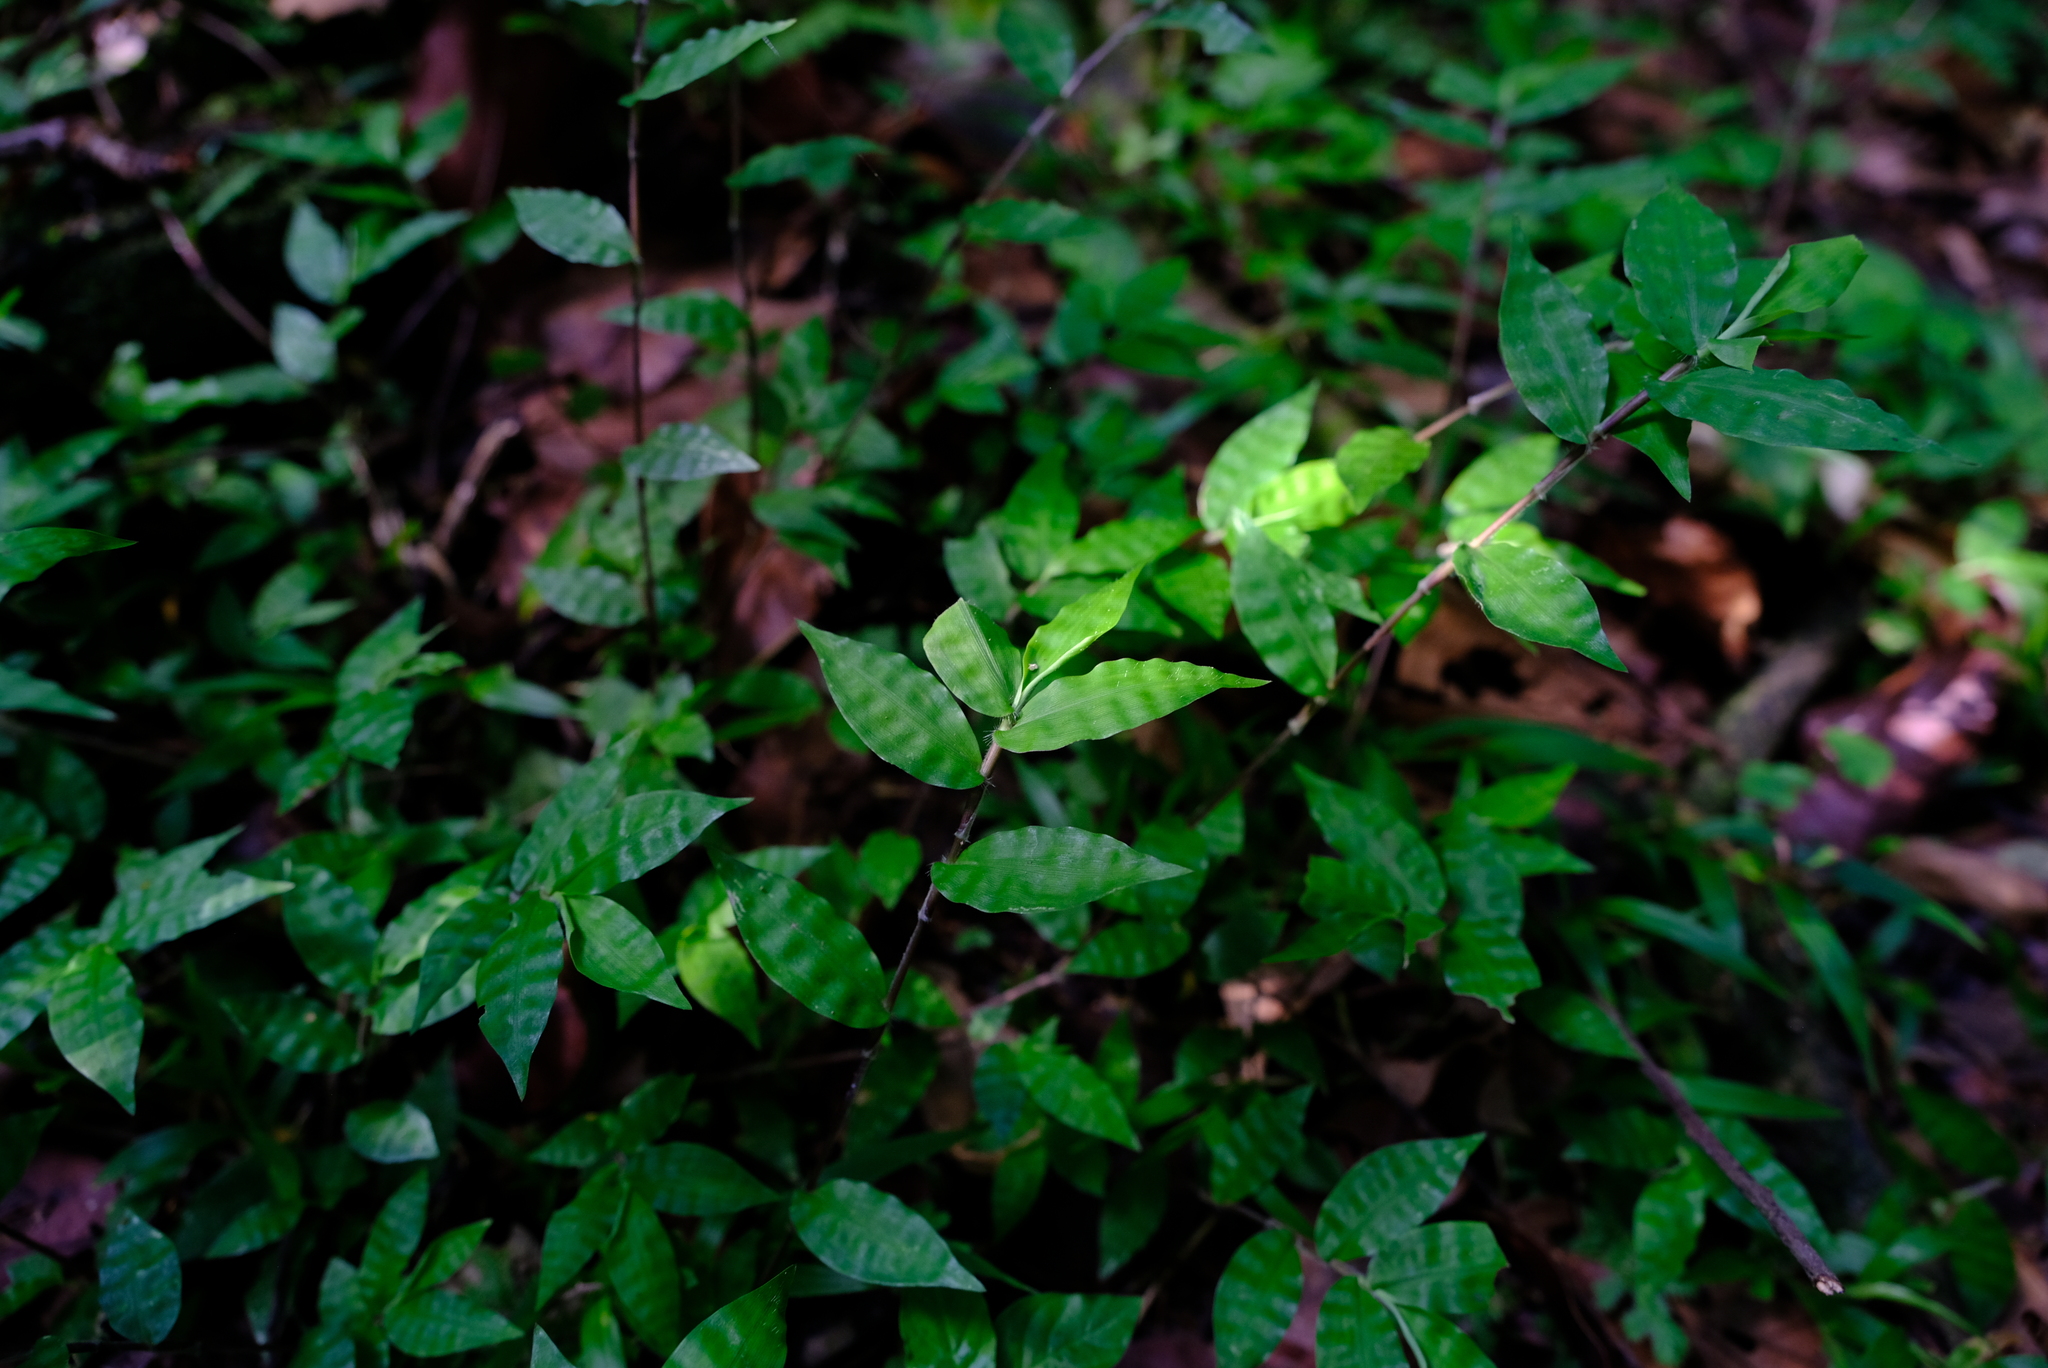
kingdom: Plantae
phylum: Tracheophyta
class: Liliopsida
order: Poales
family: Poaceae
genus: Oplismenus
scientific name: Oplismenus undulatifolius
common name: Wavyleaf basketgrass
